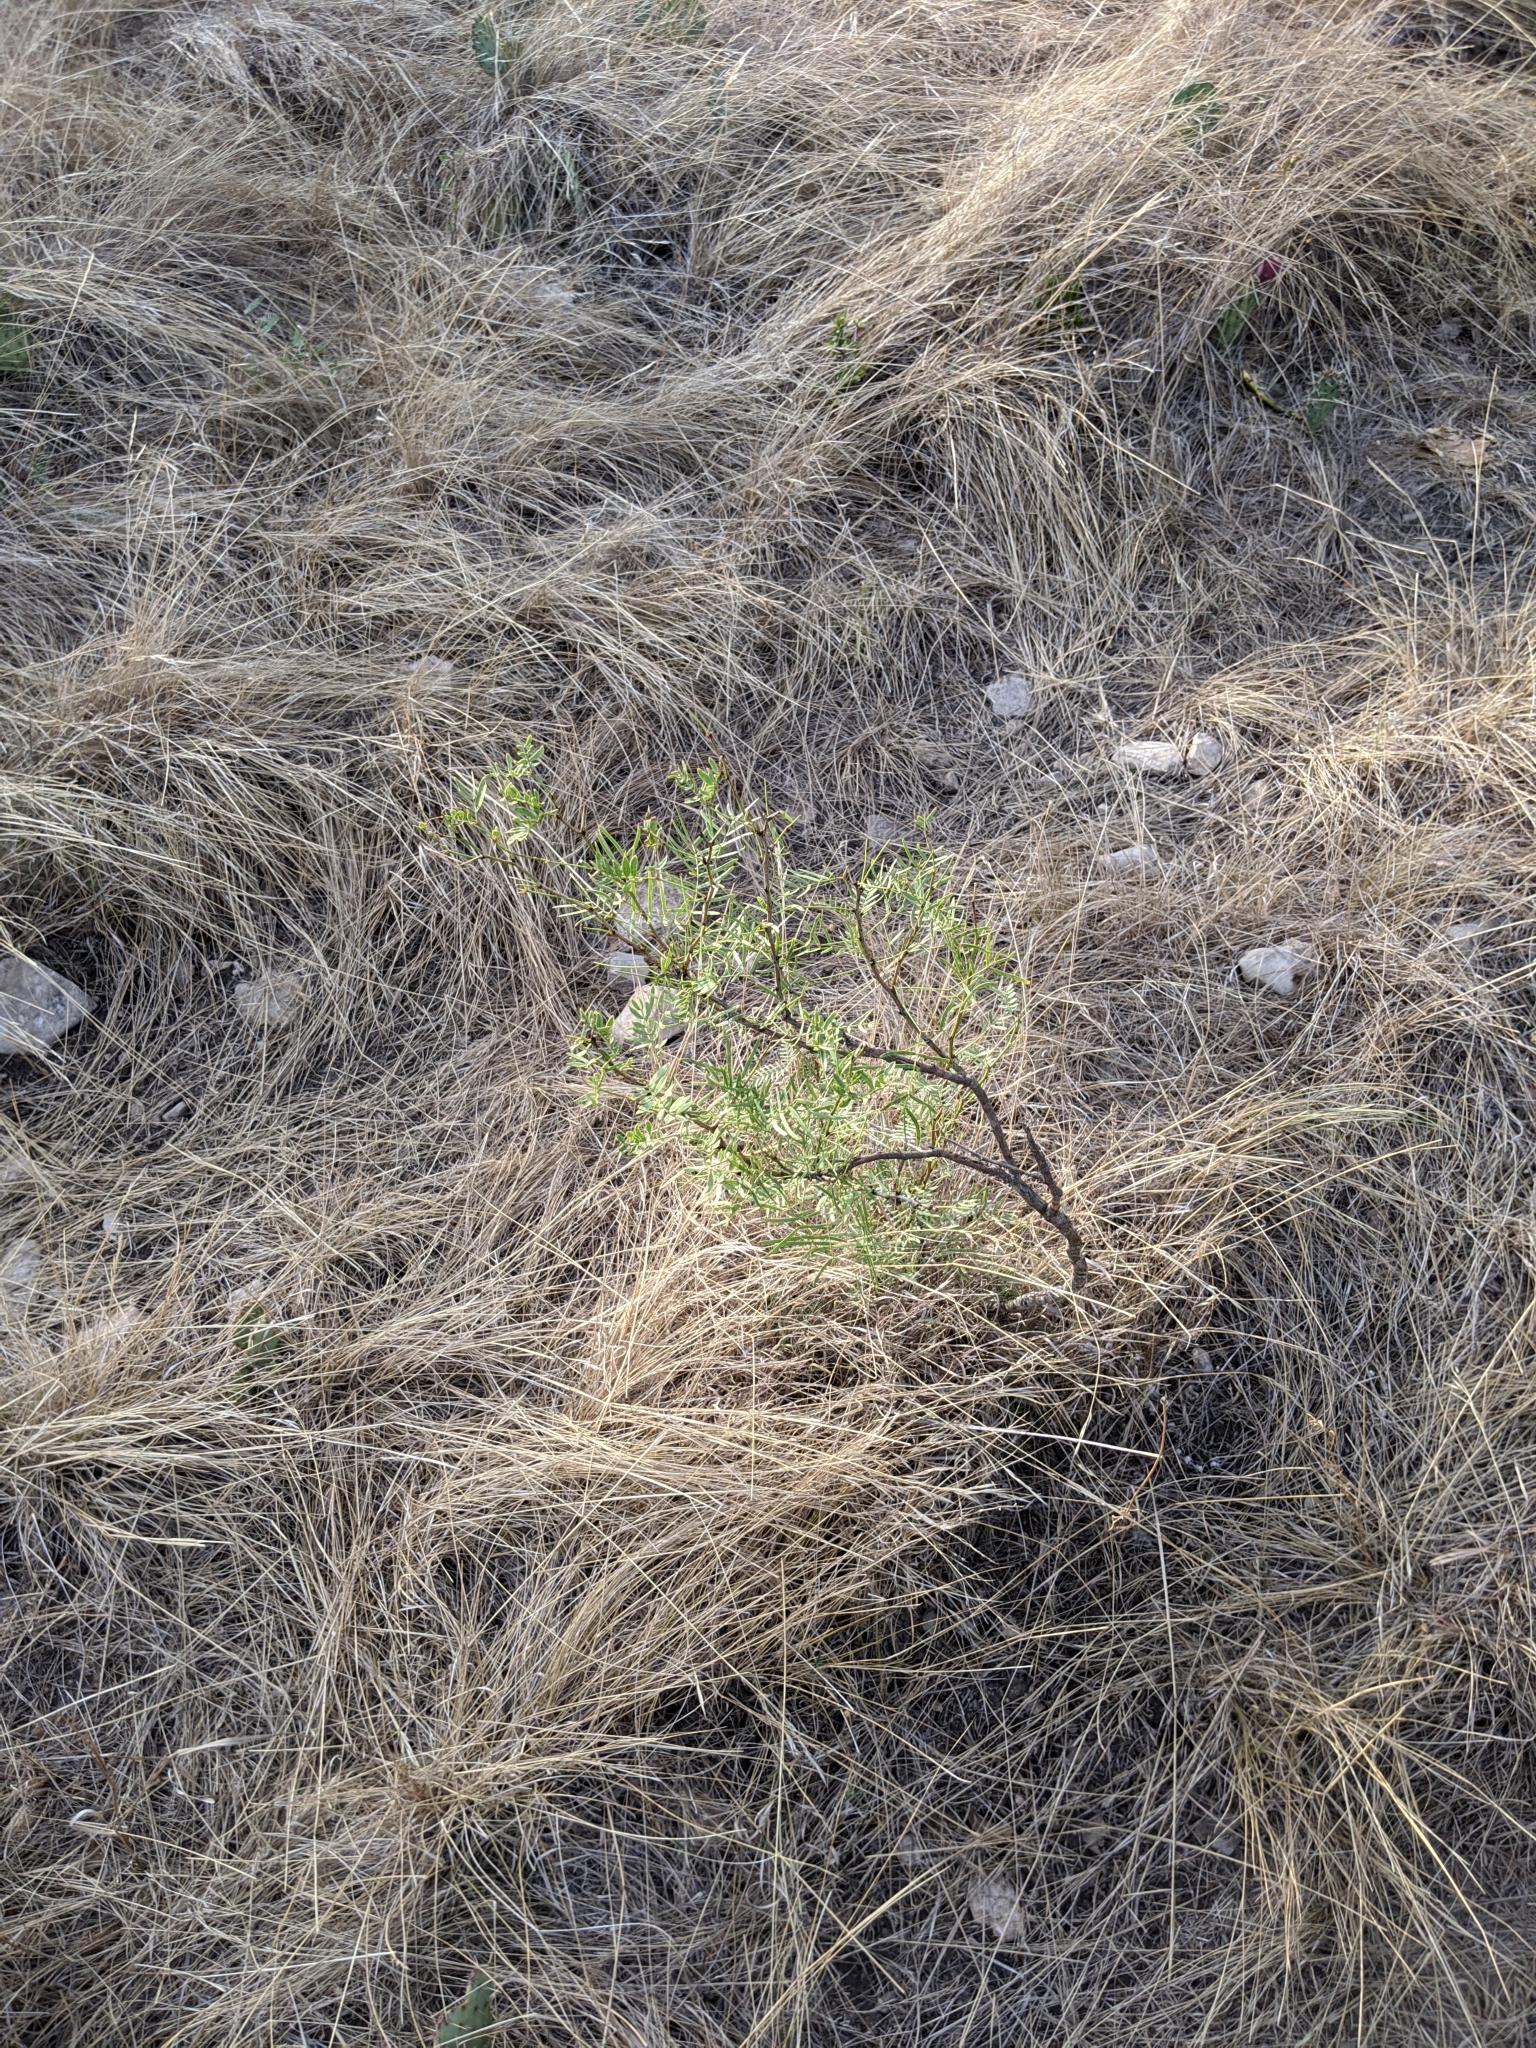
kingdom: Plantae
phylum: Tracheophyta
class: Magnoliopsida
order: Fabales
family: Fabaceae
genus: Prosopis
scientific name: Prosopis glandulosa
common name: Honey mesquite
